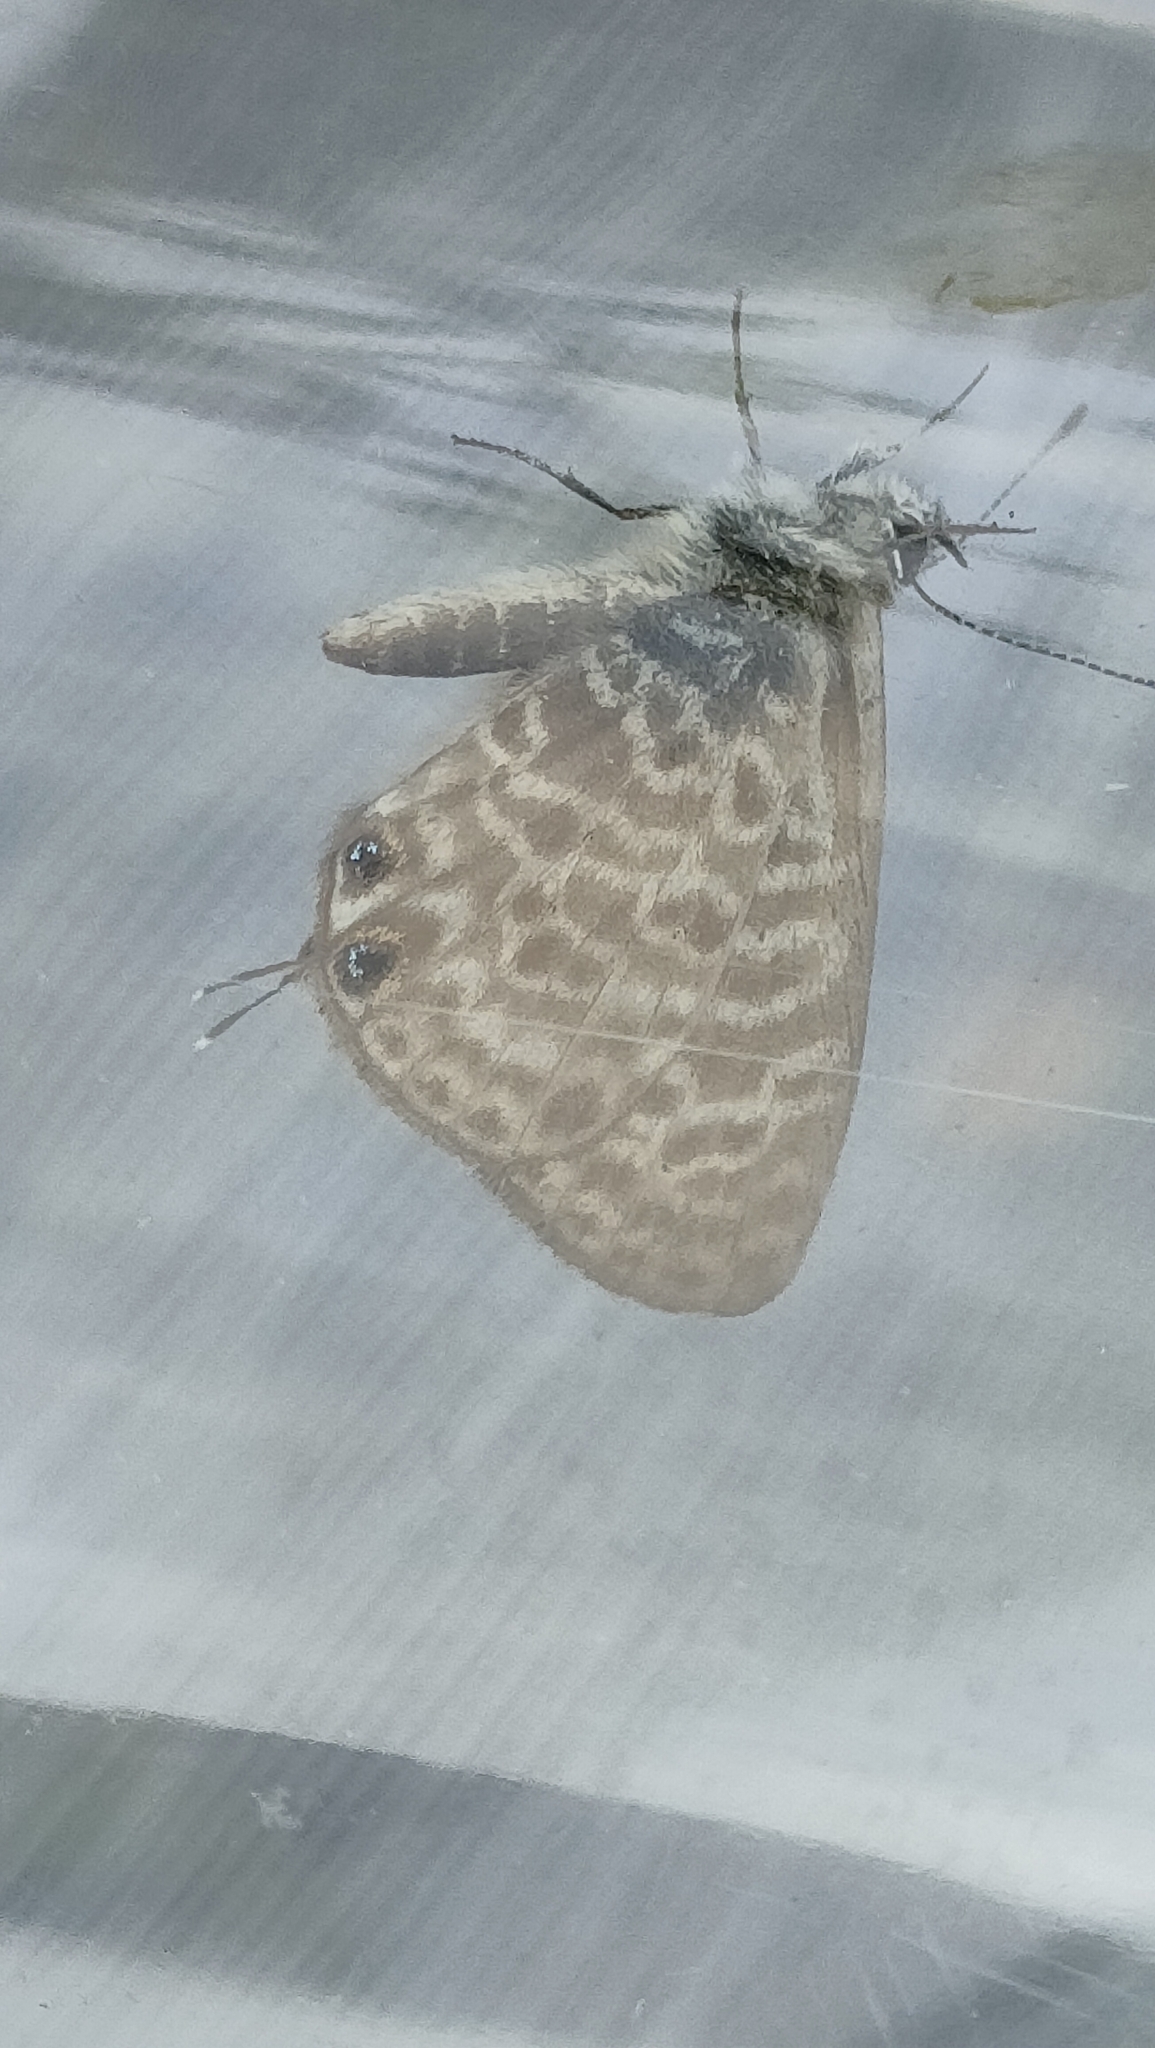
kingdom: Animalia
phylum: Arthropoda
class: Insecta
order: Lepidoptera
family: Lycaenidae
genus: Leptotes
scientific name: Leptotes pirithous
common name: Lang's short-tailed blue
